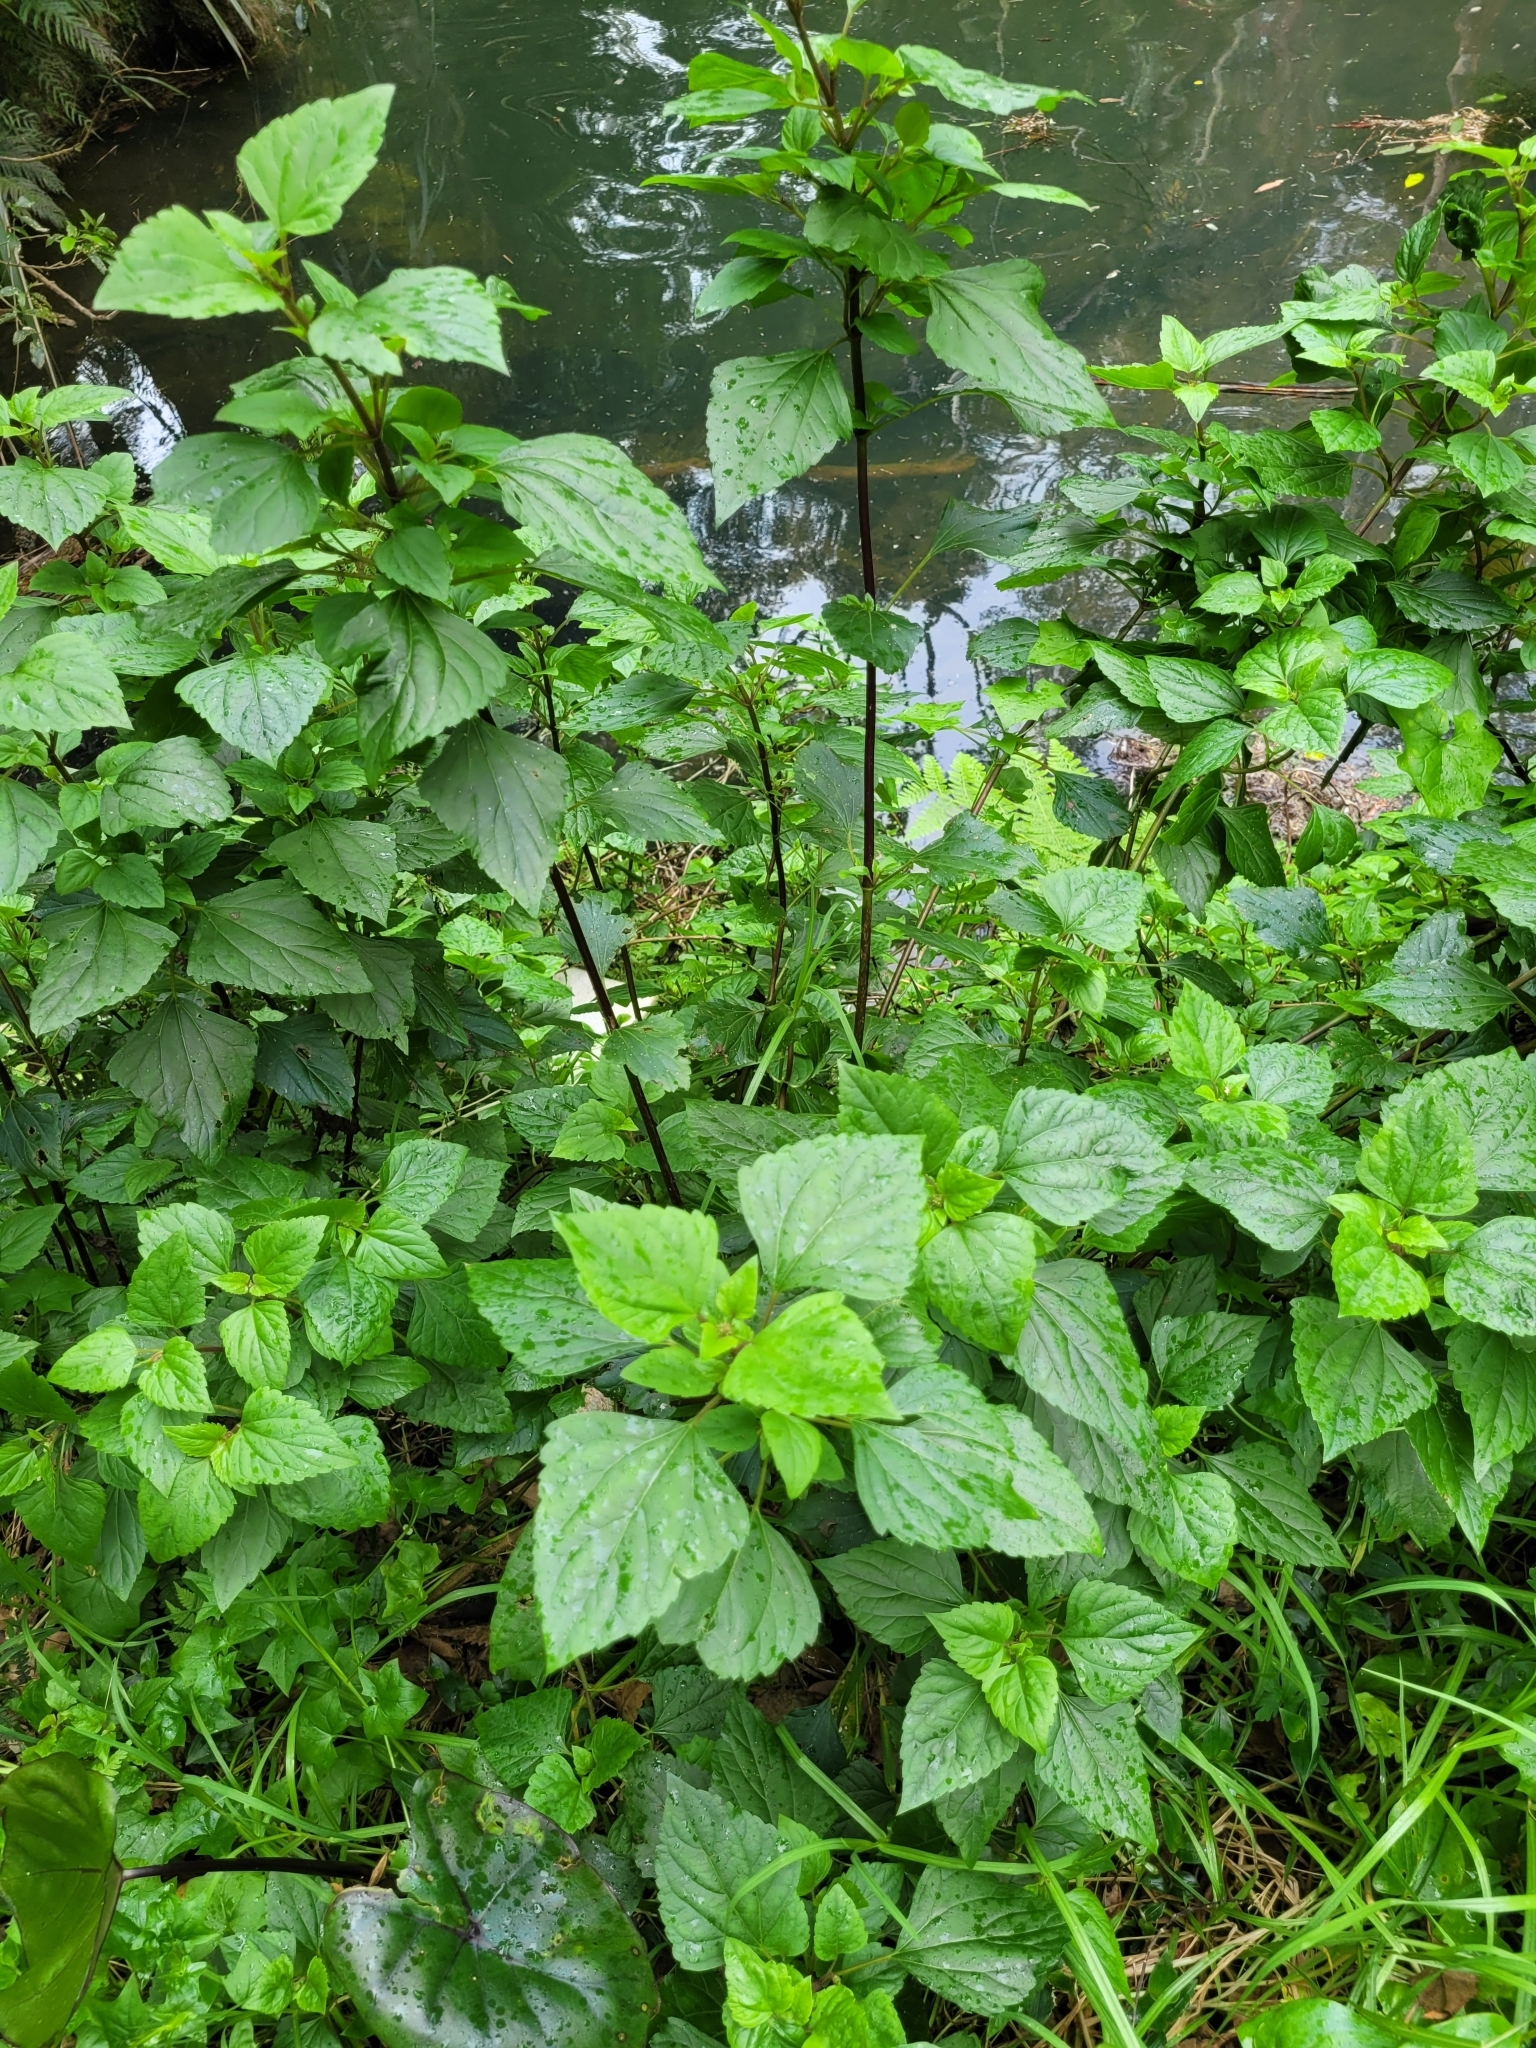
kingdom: Plantae
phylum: Tracheophyta
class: Magnoliopsida
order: Asterales
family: Asteraceae
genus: Ageratina
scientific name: Ageratina adenophora
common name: Sticky snakeroot
